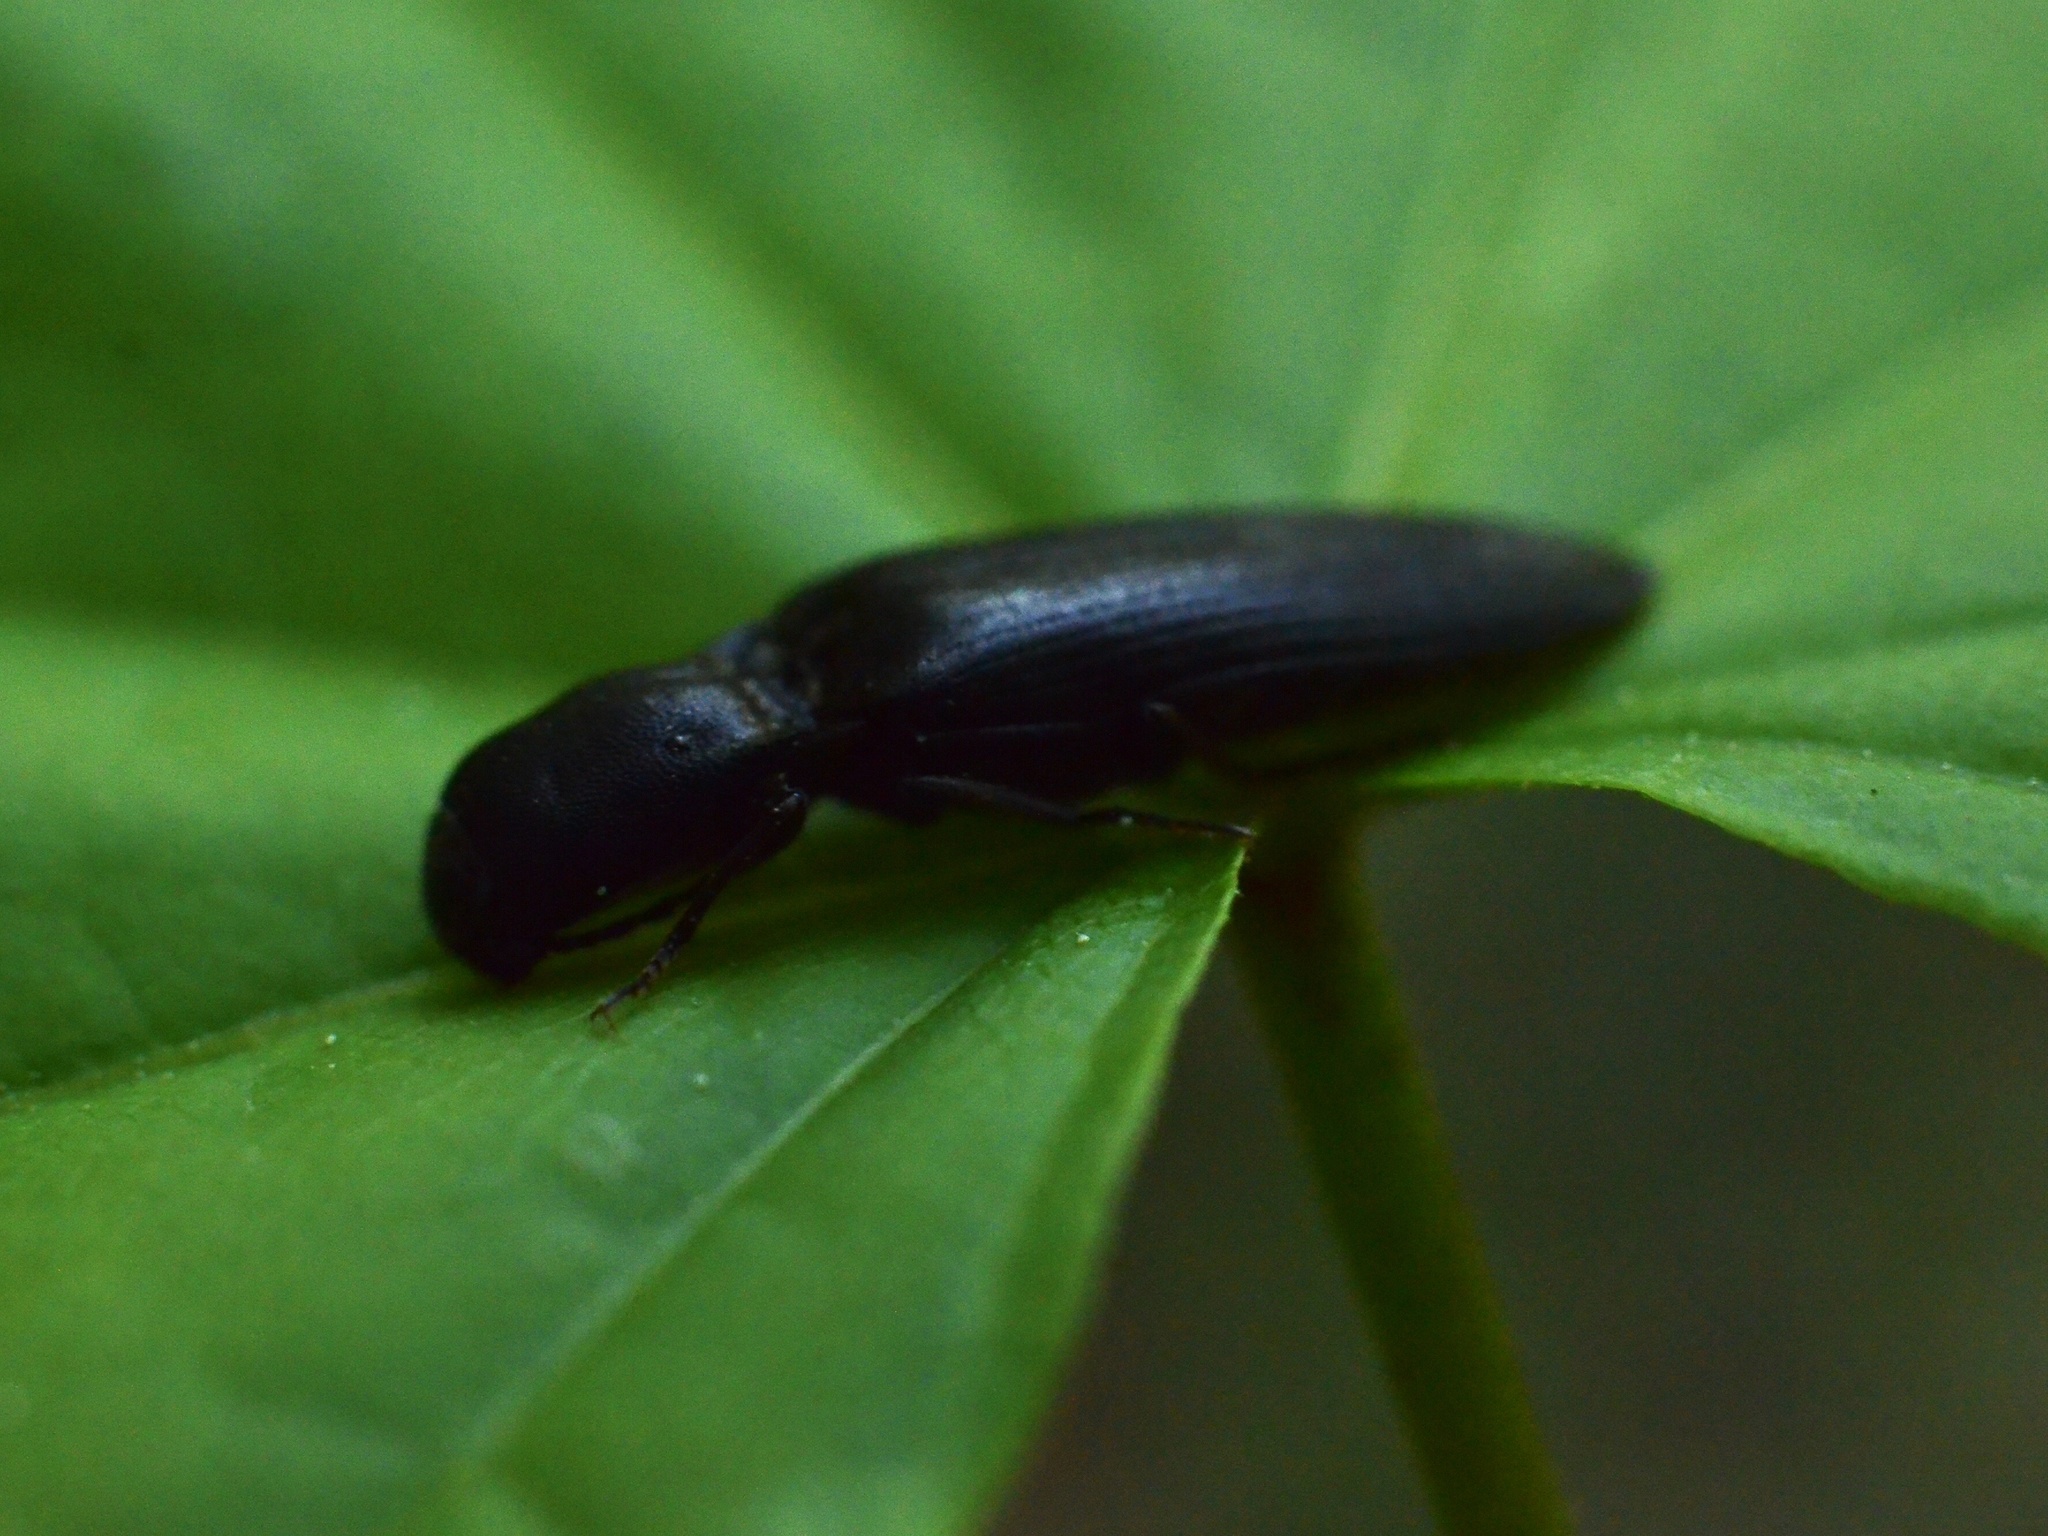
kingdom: Animalia
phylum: Arthropoda
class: Insecta
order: Coleoptera
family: Elateridae
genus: Ectinus
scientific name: Ectinus aterrimus
